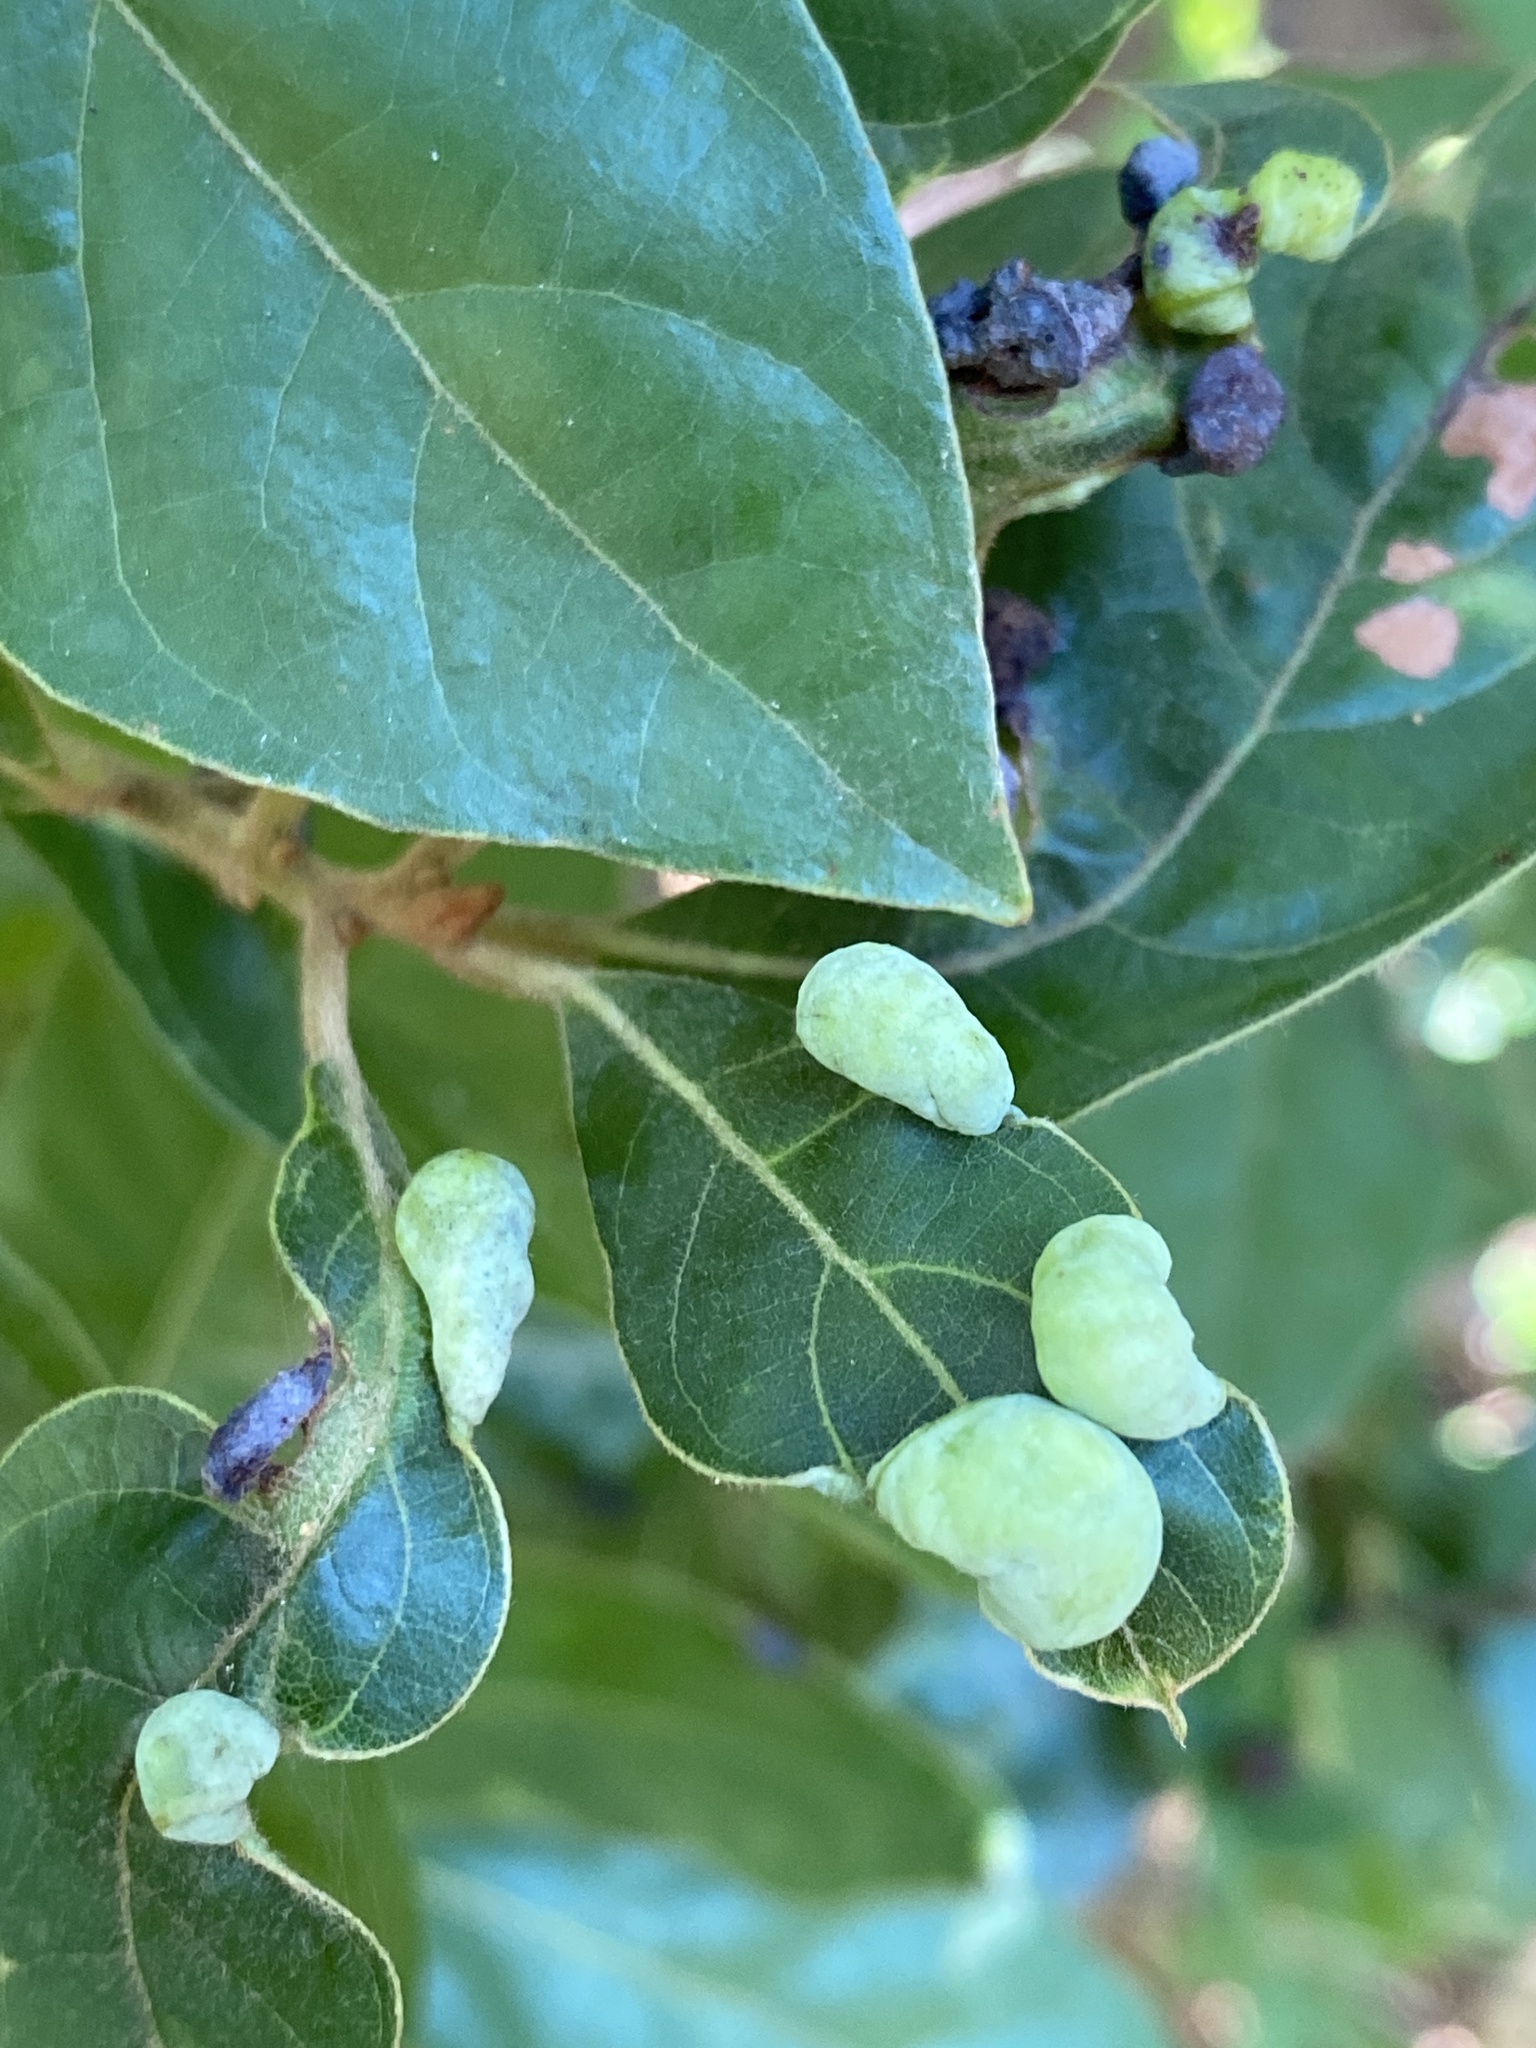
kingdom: Animalia
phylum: Arthropoda
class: Insecta
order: Hemiptera
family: Triozidae
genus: Trioza
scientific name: Trioza magnoliae
